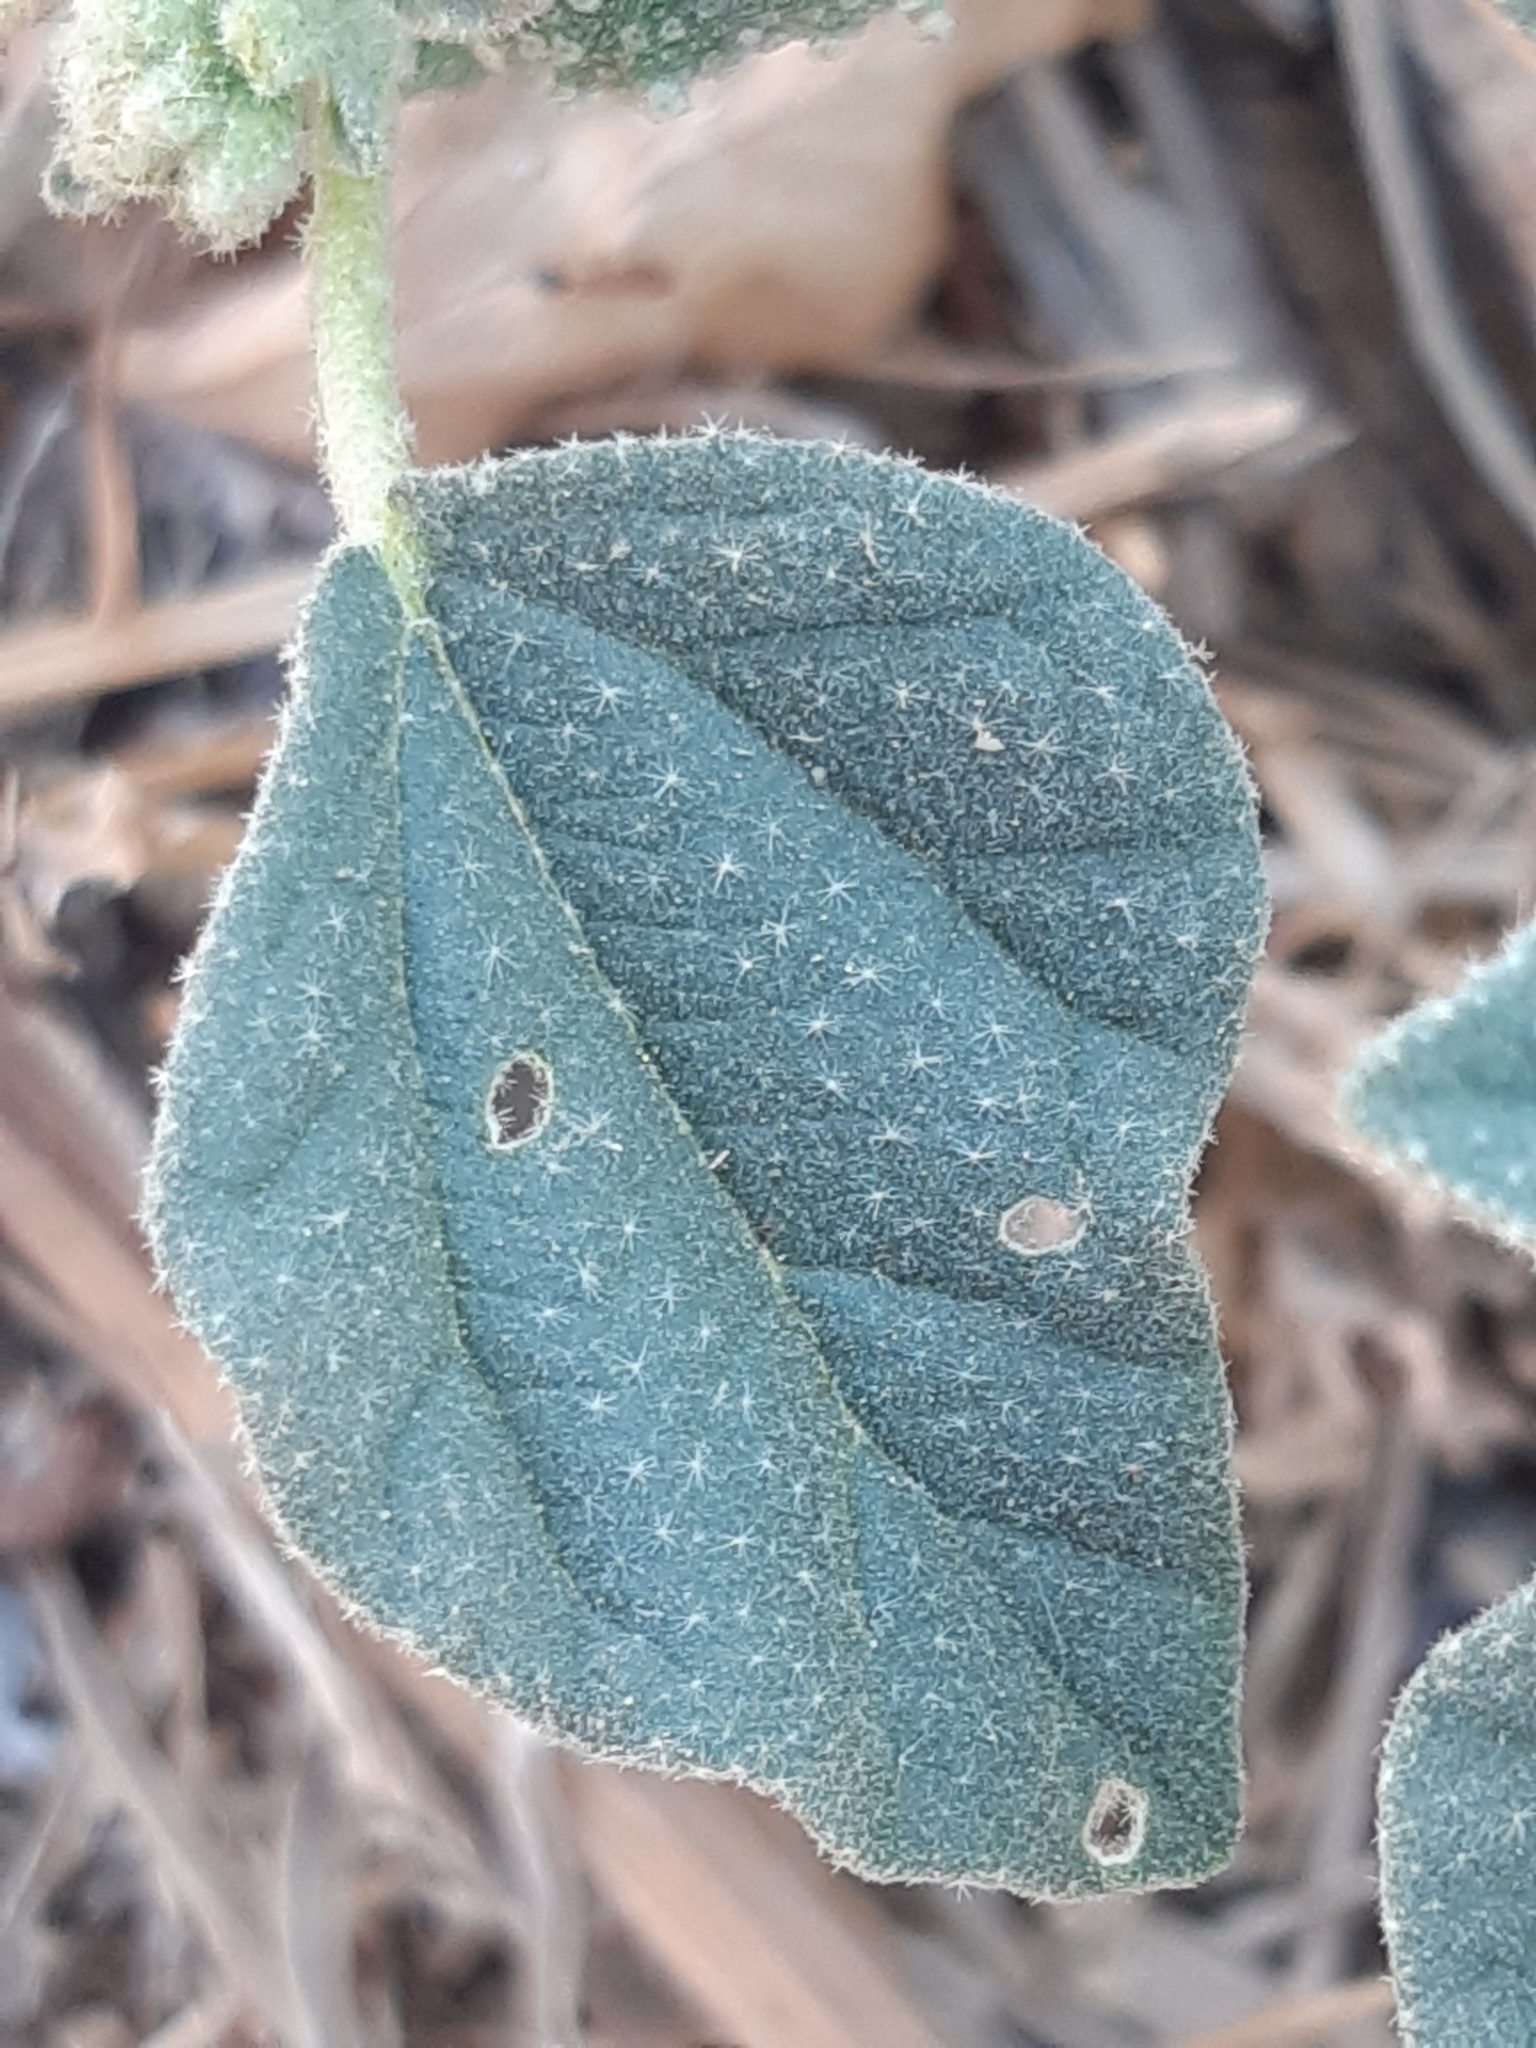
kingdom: Plantae
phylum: Tracheophyta
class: Magnoliopsida
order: Malpighiales
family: Euphorbiaceae
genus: Chrozophora
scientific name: Chrozophora tinctoria
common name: Dyer's litmus
